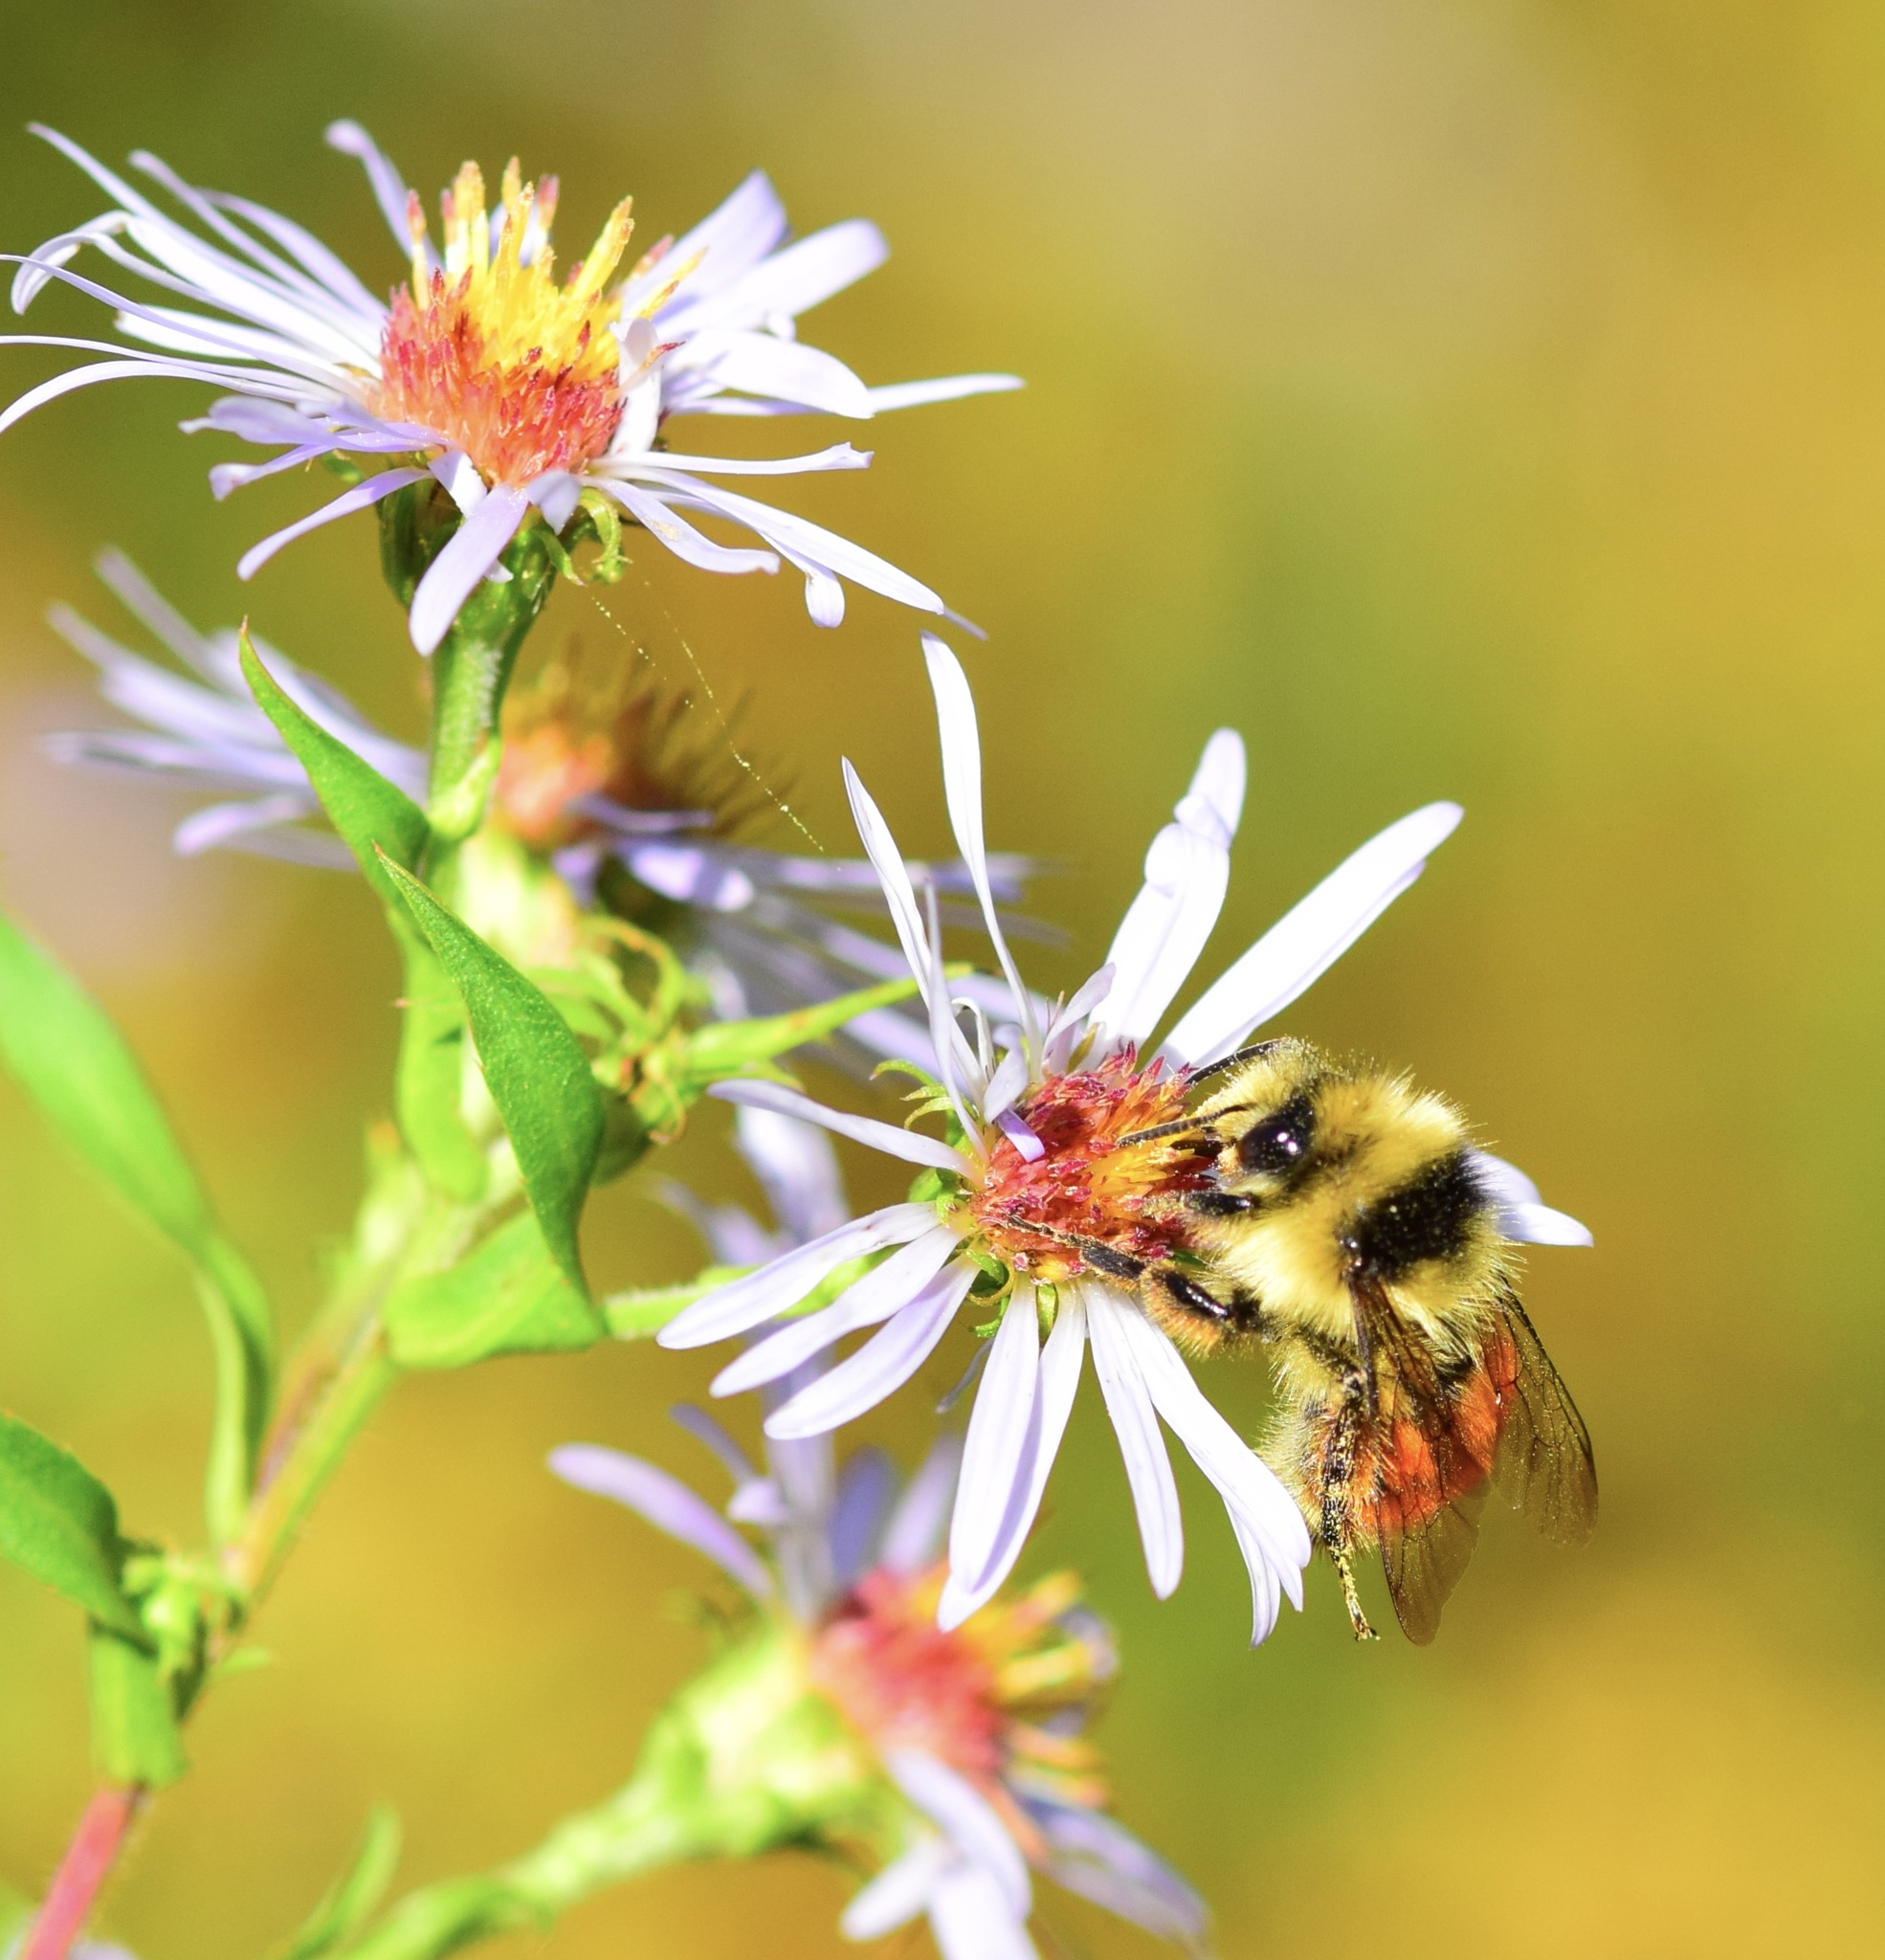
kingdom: Animalia
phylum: Arthropoda
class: Insecta
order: Hymenoptera
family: Apidae
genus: Bombus
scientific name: Bombus ternarius
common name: Tri-colored bumble bee
